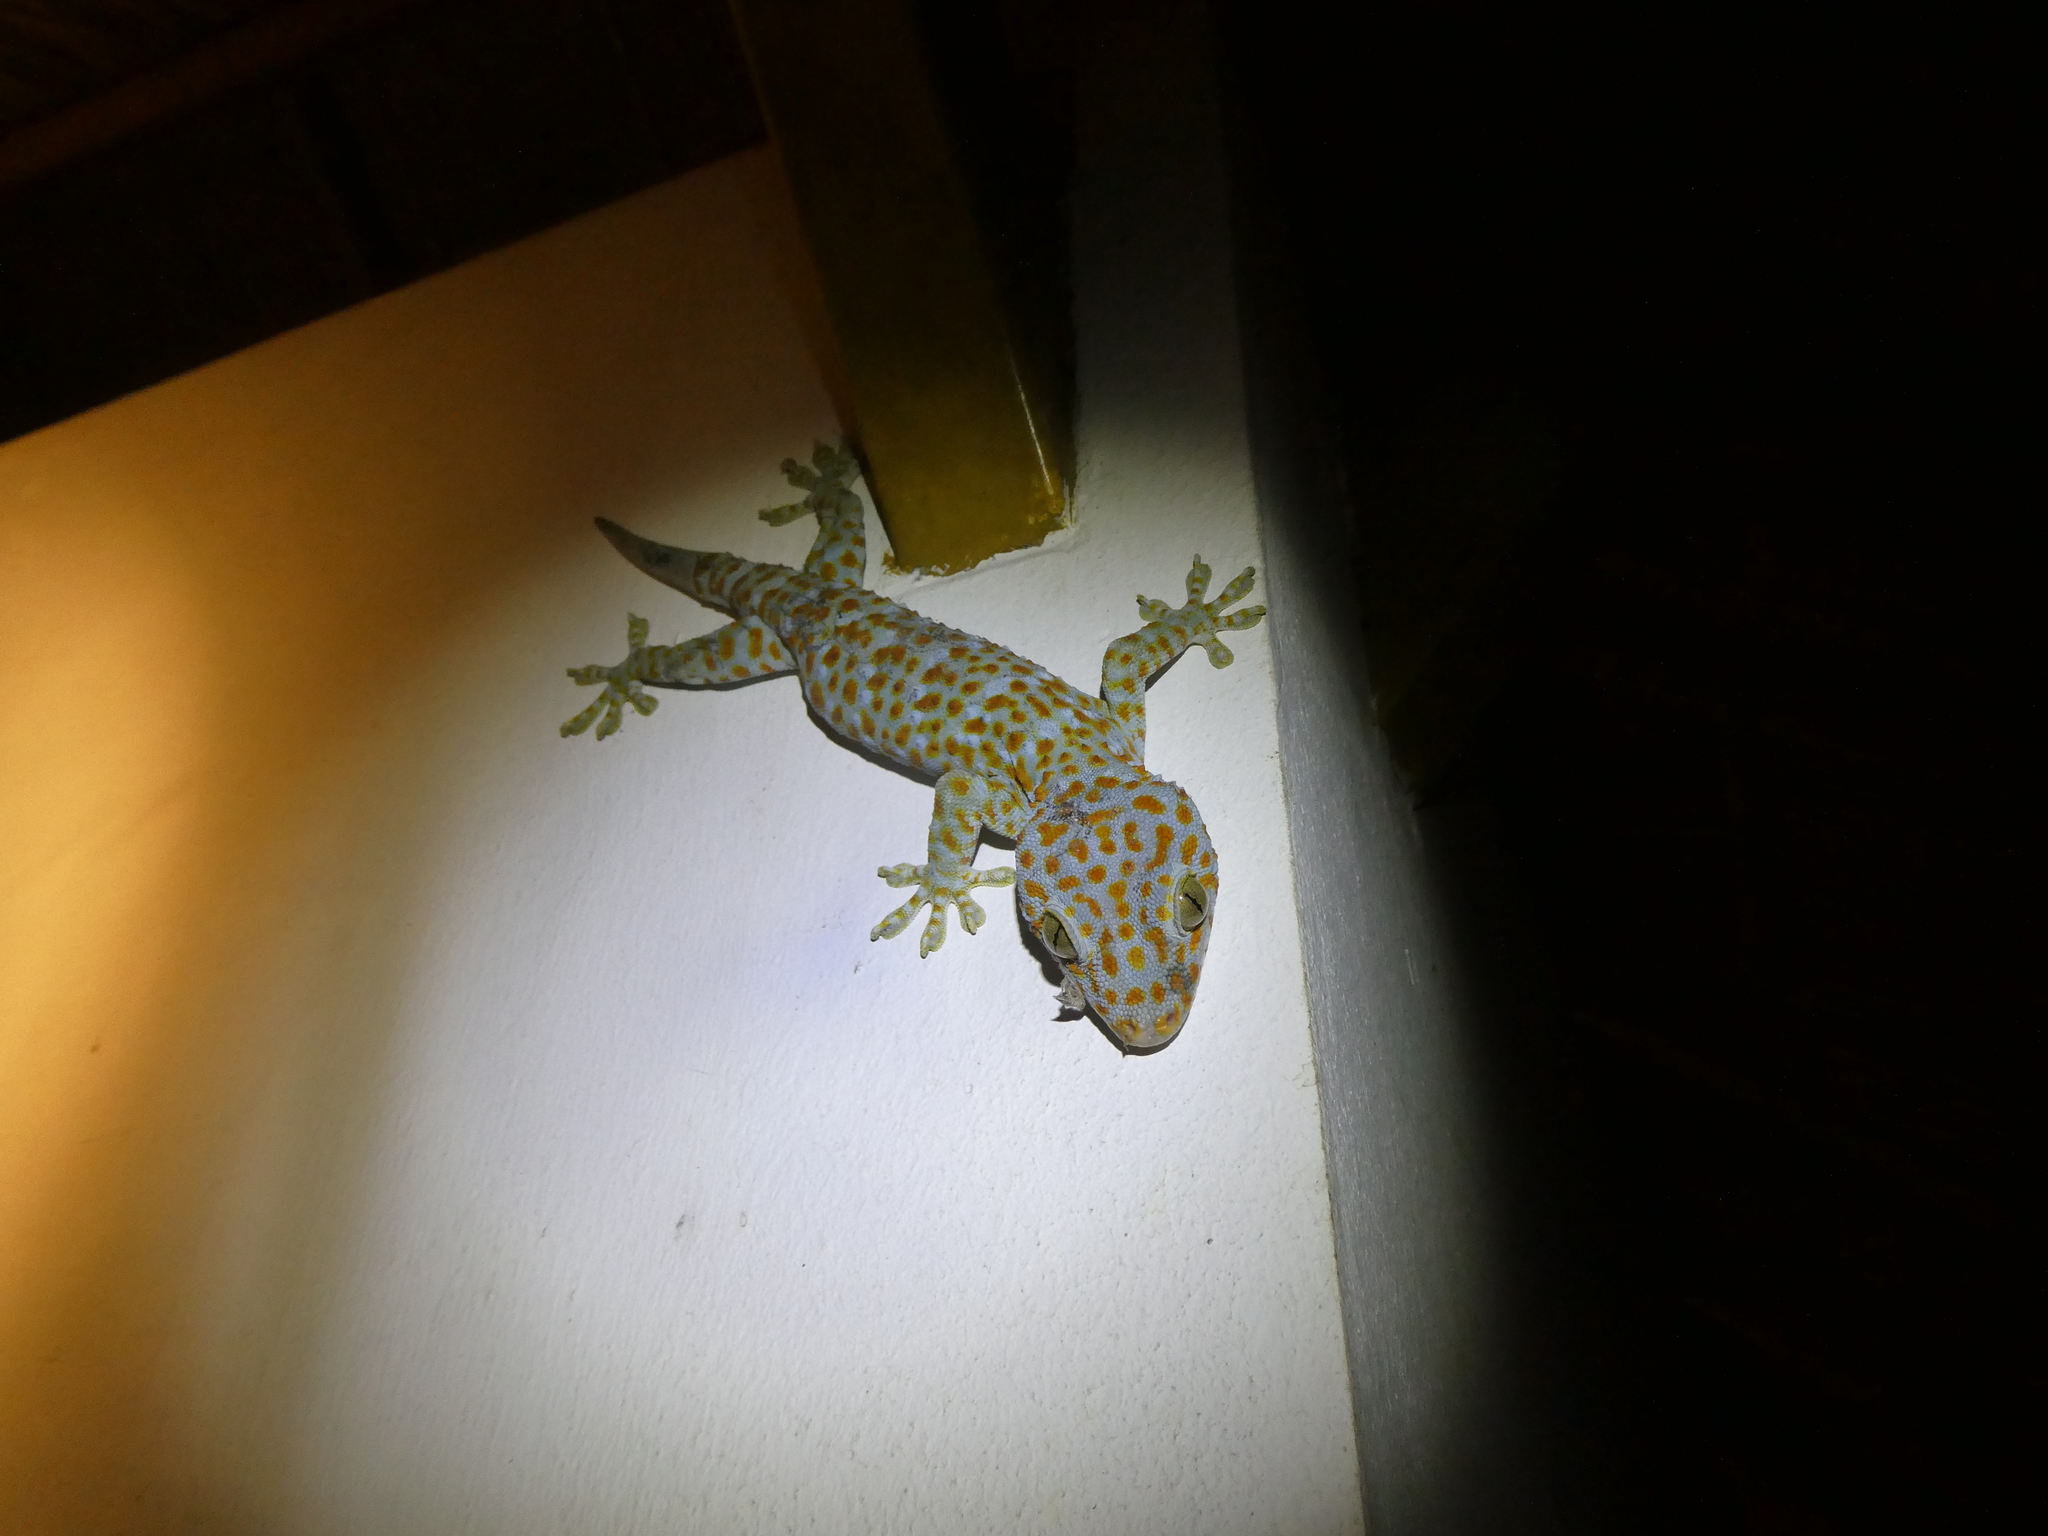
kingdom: Animalia
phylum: Chordata
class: Squamata
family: Gekkonidae
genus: Gekko
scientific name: Gekko gecko
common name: Tokay gecko
